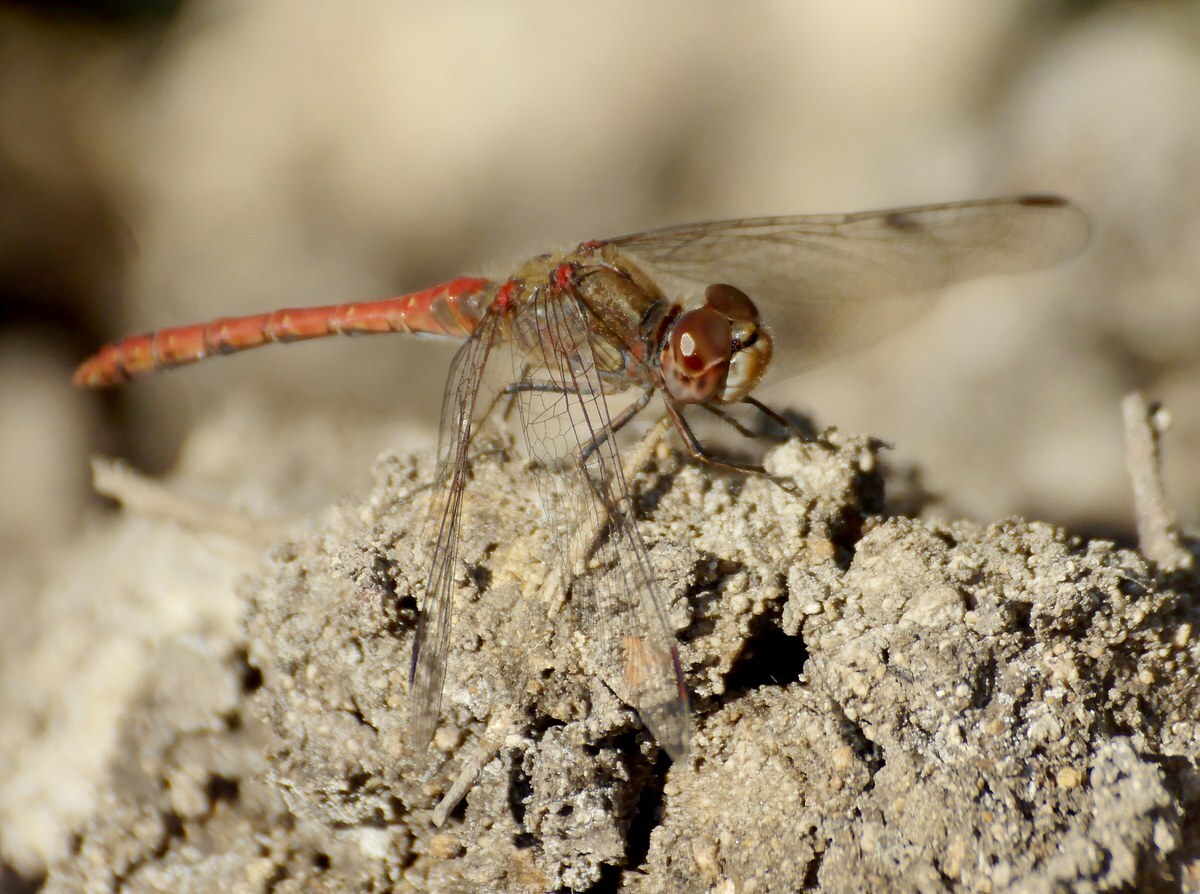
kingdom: Animalia
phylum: Arthropoda
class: Insecta
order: Odonata
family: Libellulidae
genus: Sympetrum
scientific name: Sympetrum striolatum
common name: Common darter
